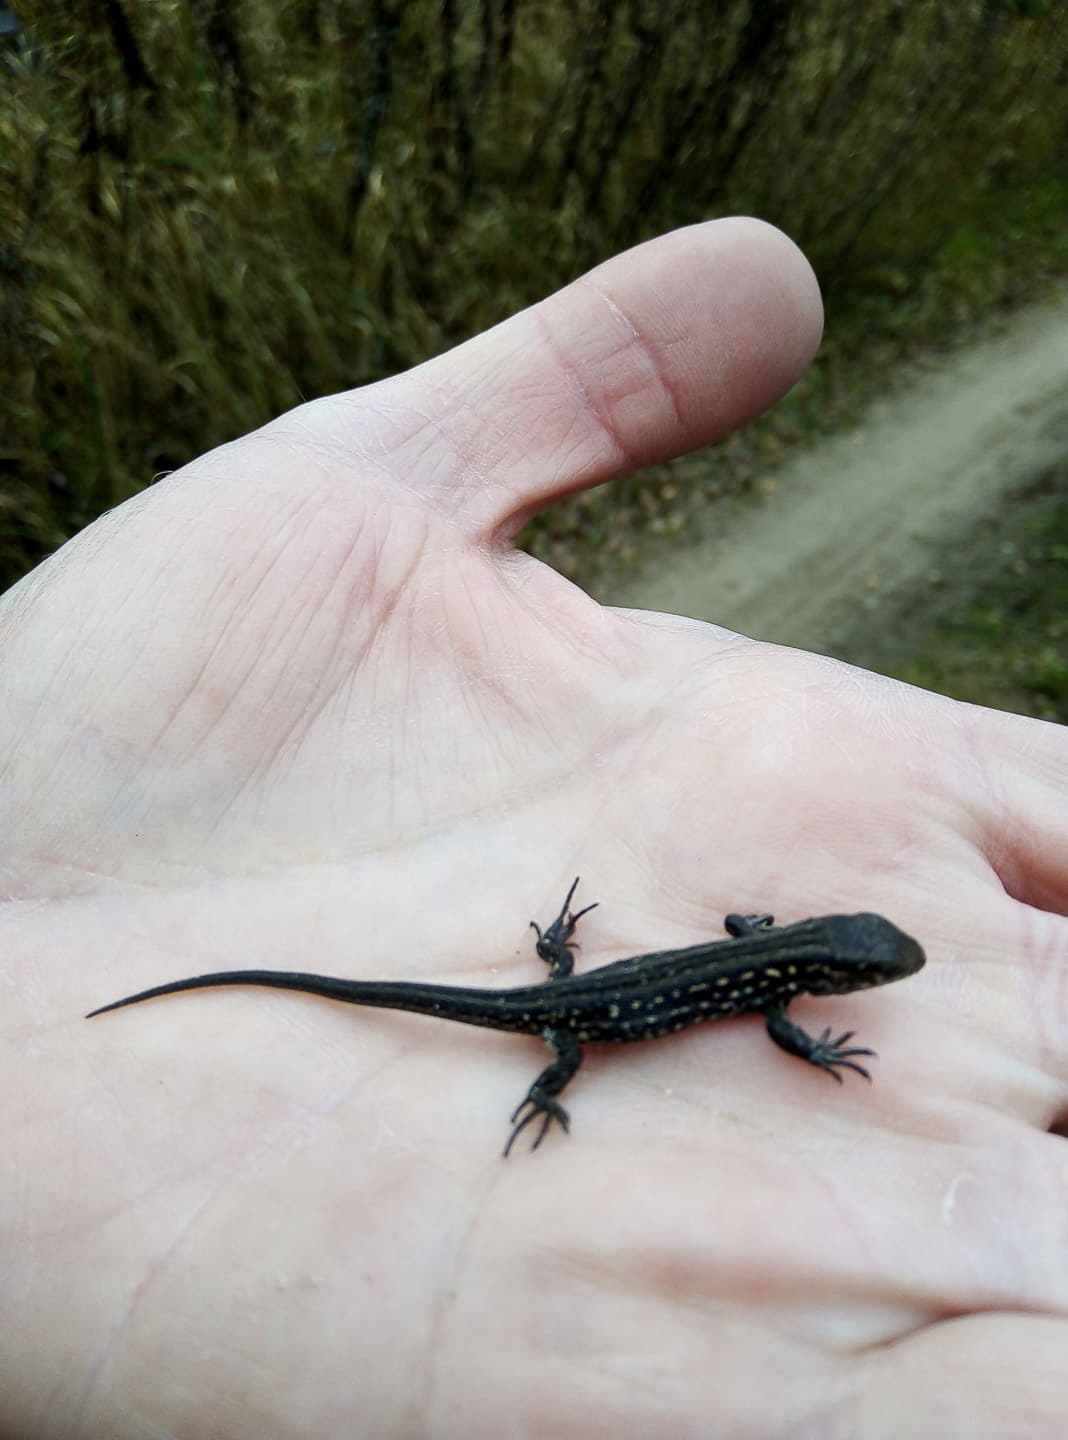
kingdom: Animalia
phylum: Chordata
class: Squamata
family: Lacertidae
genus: Lacerta
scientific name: Lacerta agilis
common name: Sand lizard
